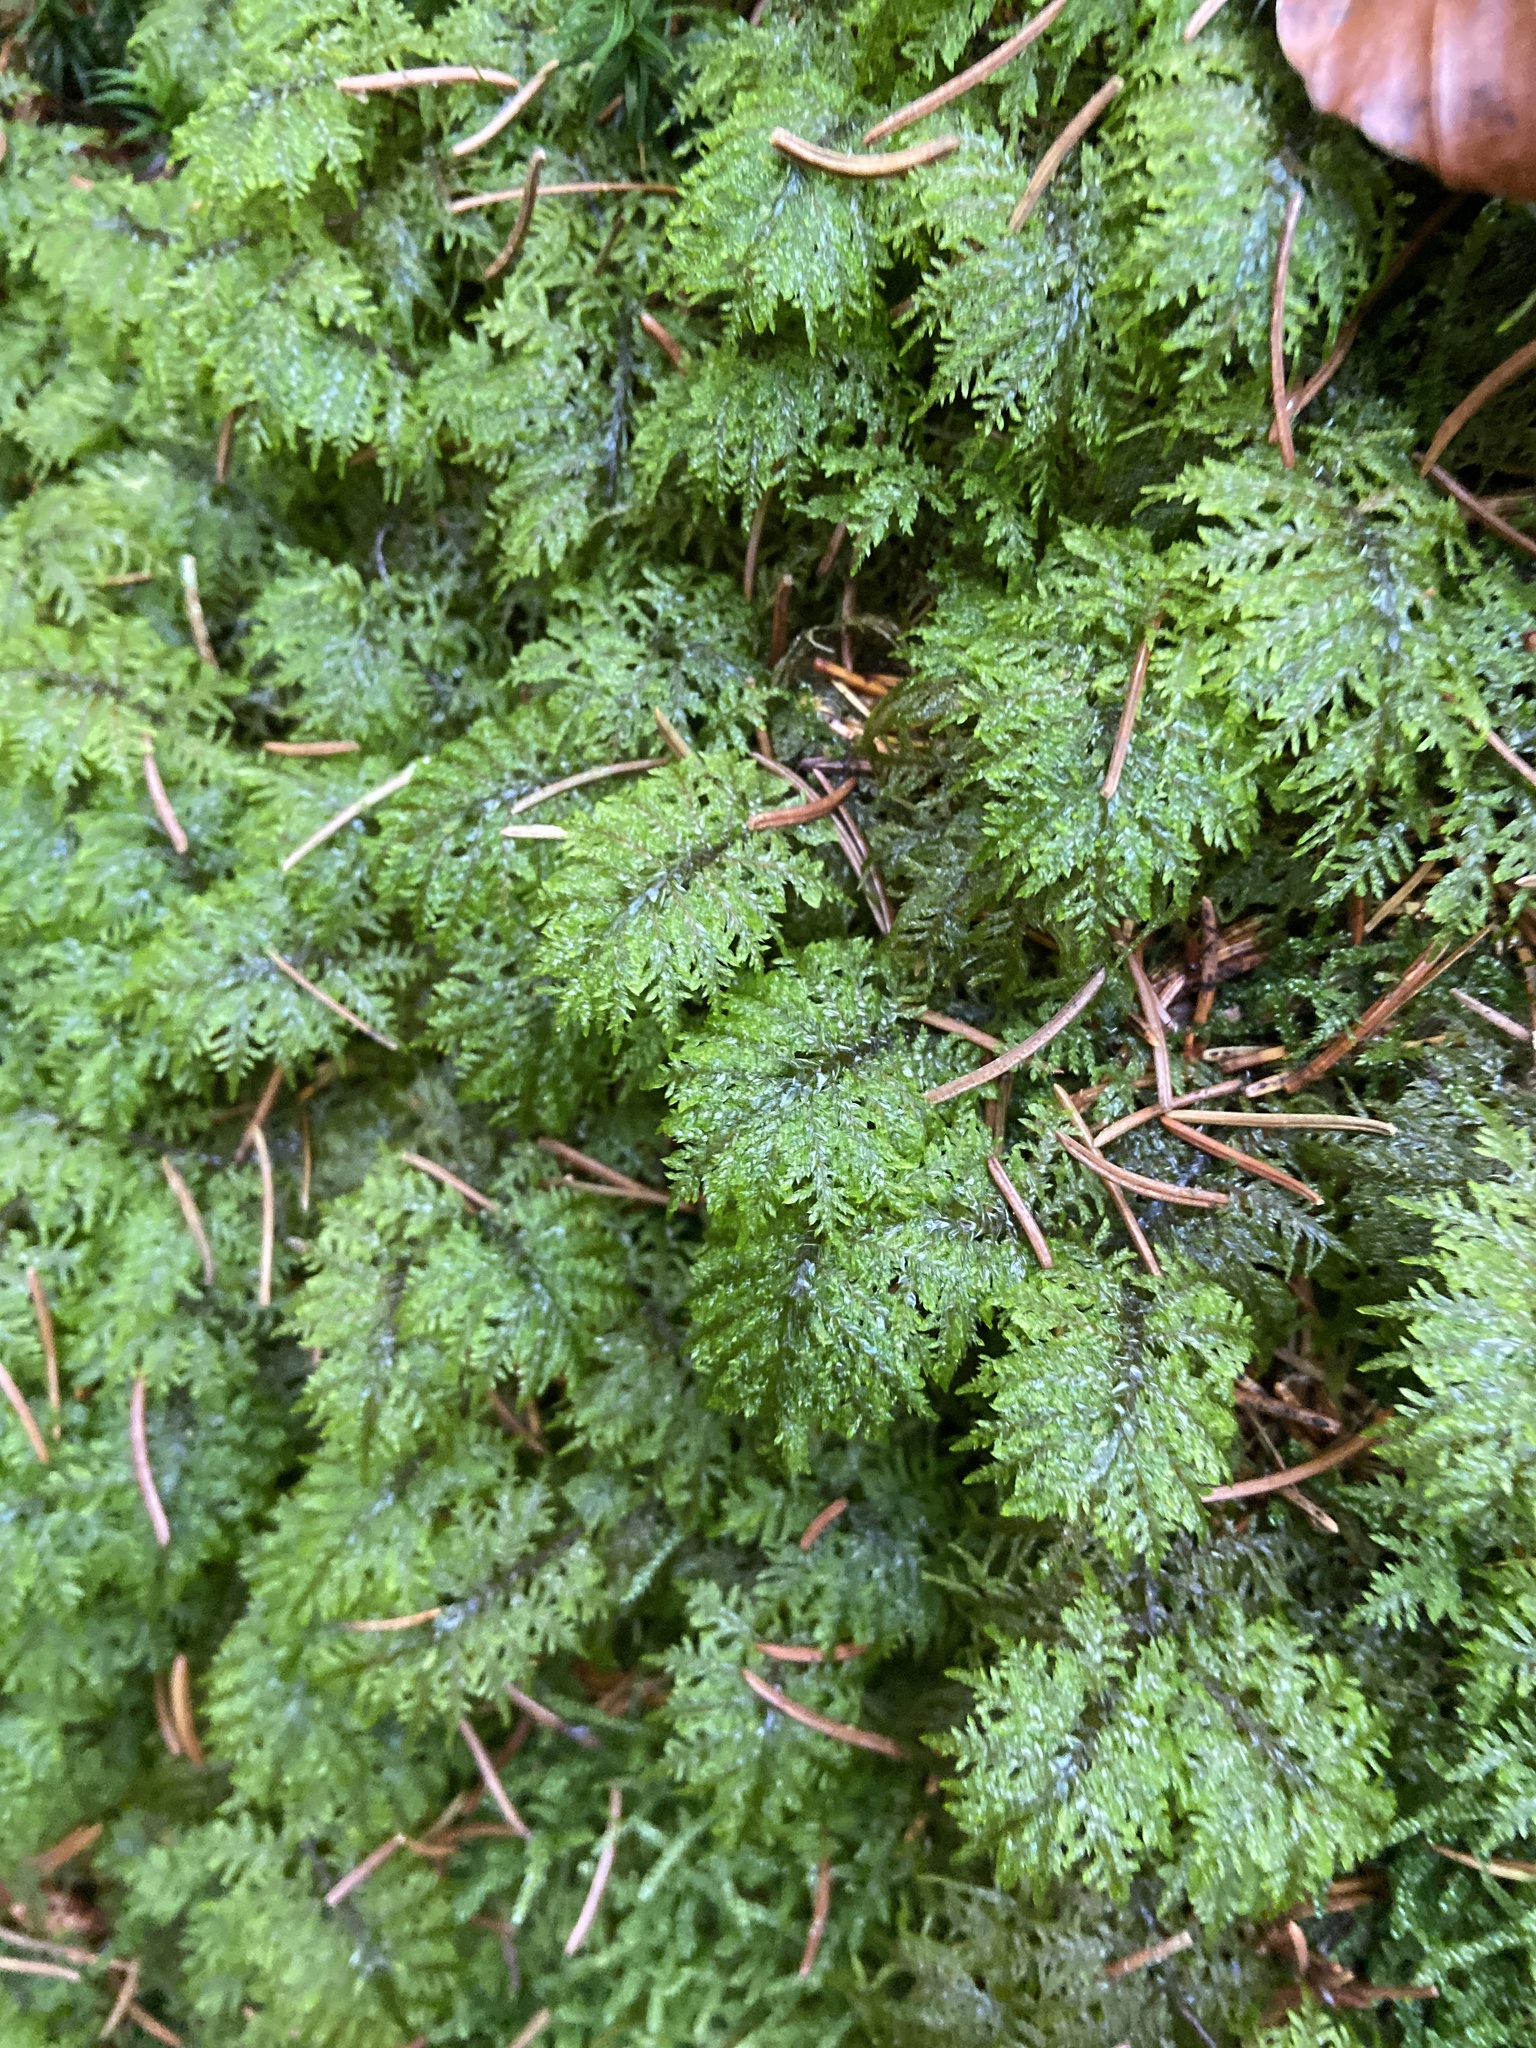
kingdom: Plantae
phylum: Bryophyta
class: Bryopsida
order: Hypnales
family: Hylocomiaceae
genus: Hylocomium
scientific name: Hylocomium splendens
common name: Stairstep moss
